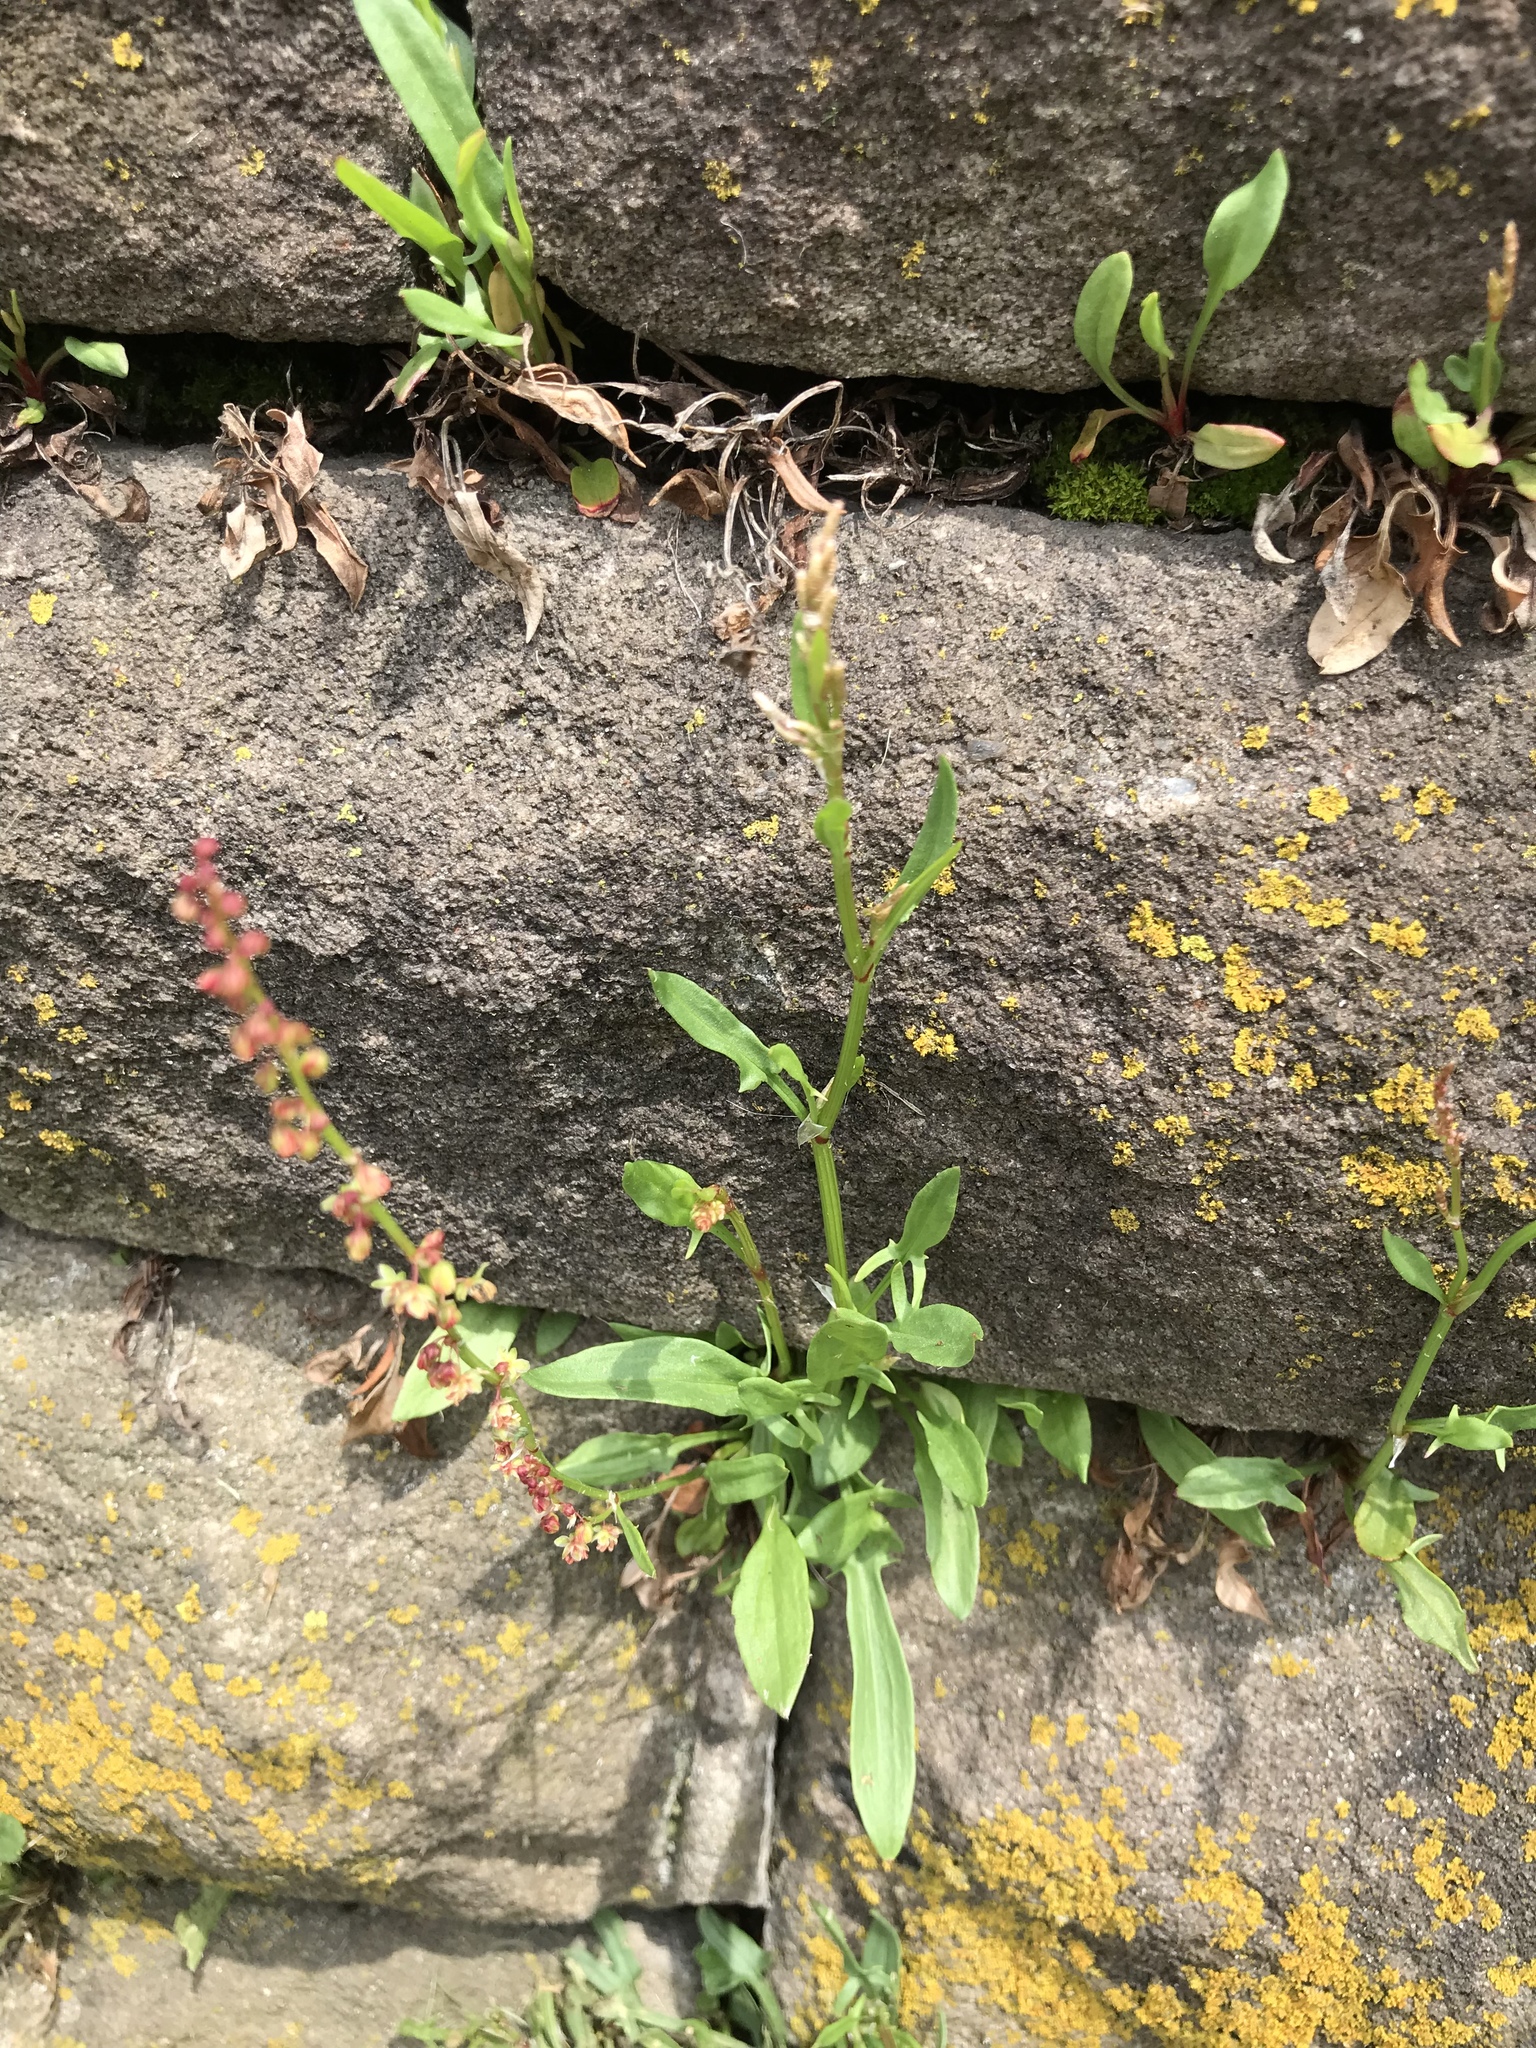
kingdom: Plantae
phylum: Tracheophyta
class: Magnoliopsida
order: Caryophyllales
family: Polygonaceae
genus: Rumex
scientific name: Rumex acetosella
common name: Common sheep sorrel
